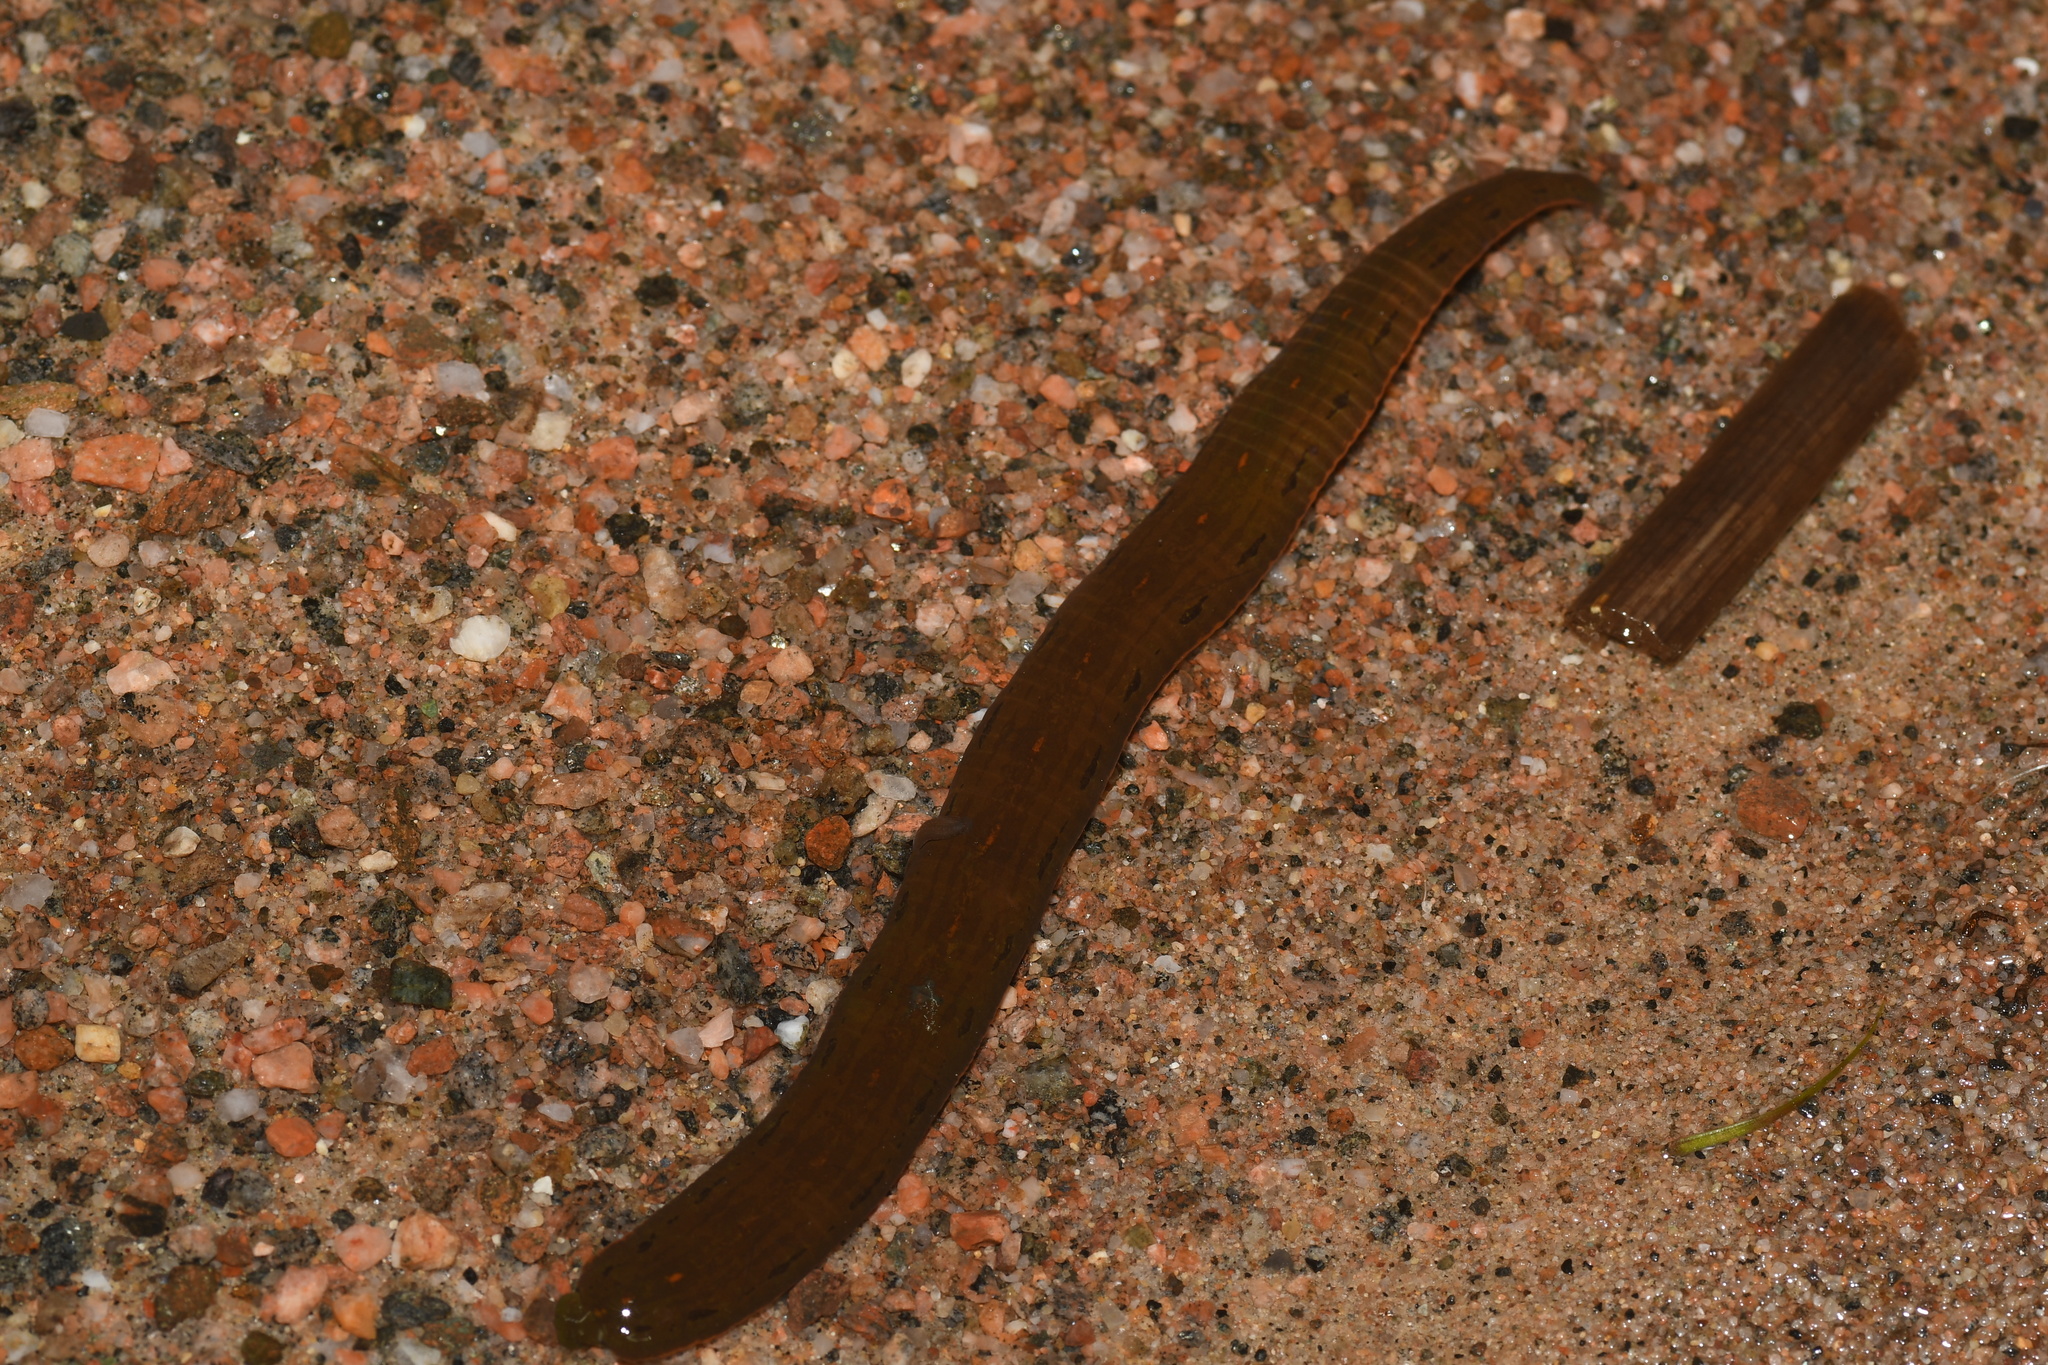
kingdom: Animalia
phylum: Annelida
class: Clitellata
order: Arhynchobdellida
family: Hirudinidae
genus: Macrobdella
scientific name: Macrobdella decora
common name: North american leech
